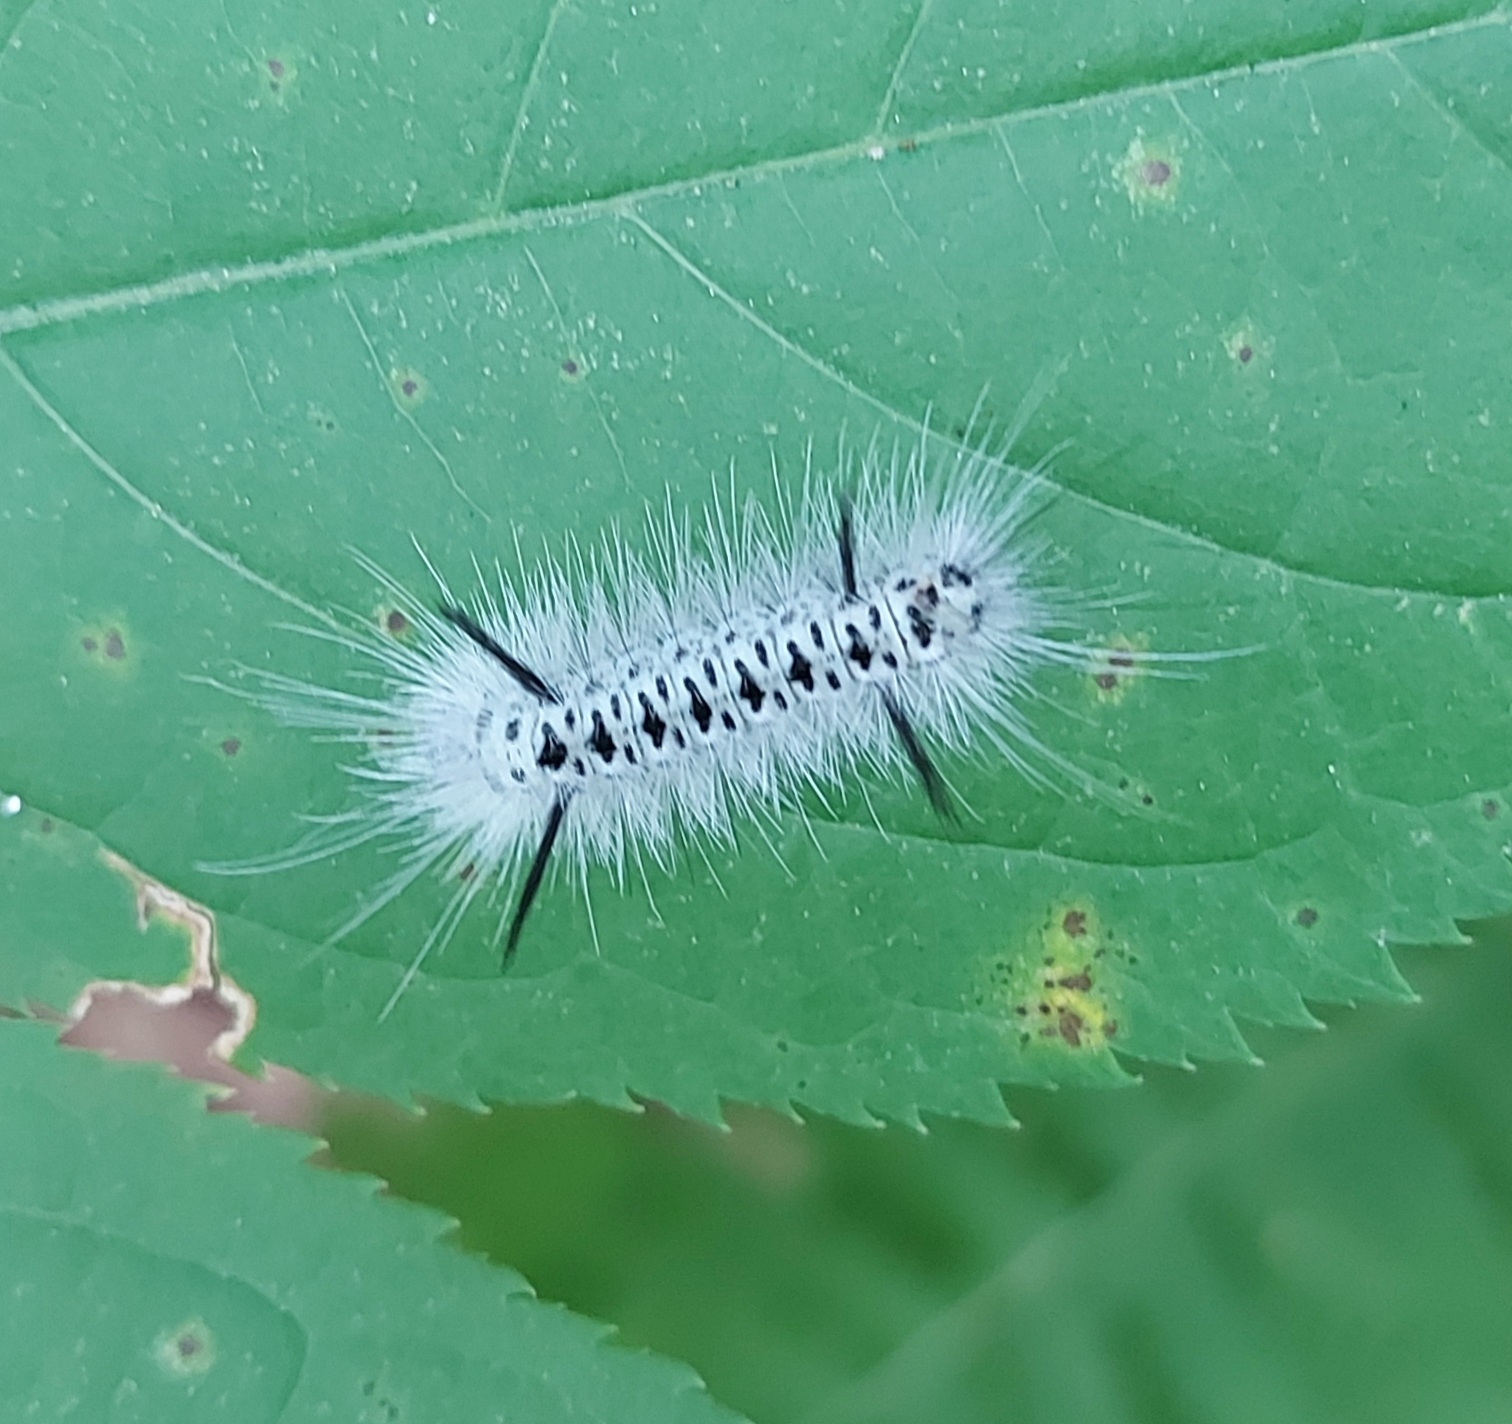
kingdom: Animalia
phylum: Arthropoda
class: Insecta
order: Lepidoptera
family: Erebidae
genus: Lophocampa
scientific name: Lophocampa caryae
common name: Hickory tussock moth
